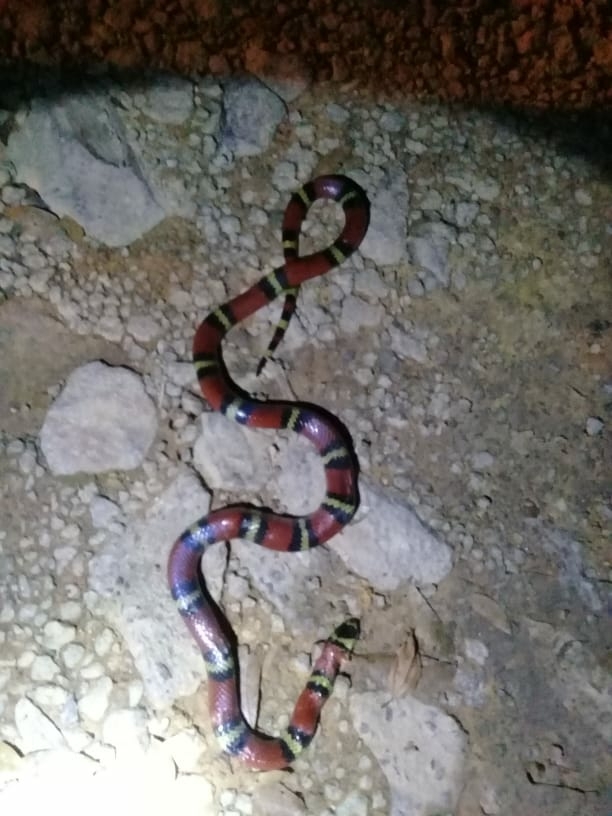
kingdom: Animalia
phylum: Chordata
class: Squamata
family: Colubridae
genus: Lampropeltis
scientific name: Lampropeltis abnorma
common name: Honduran milk snake
